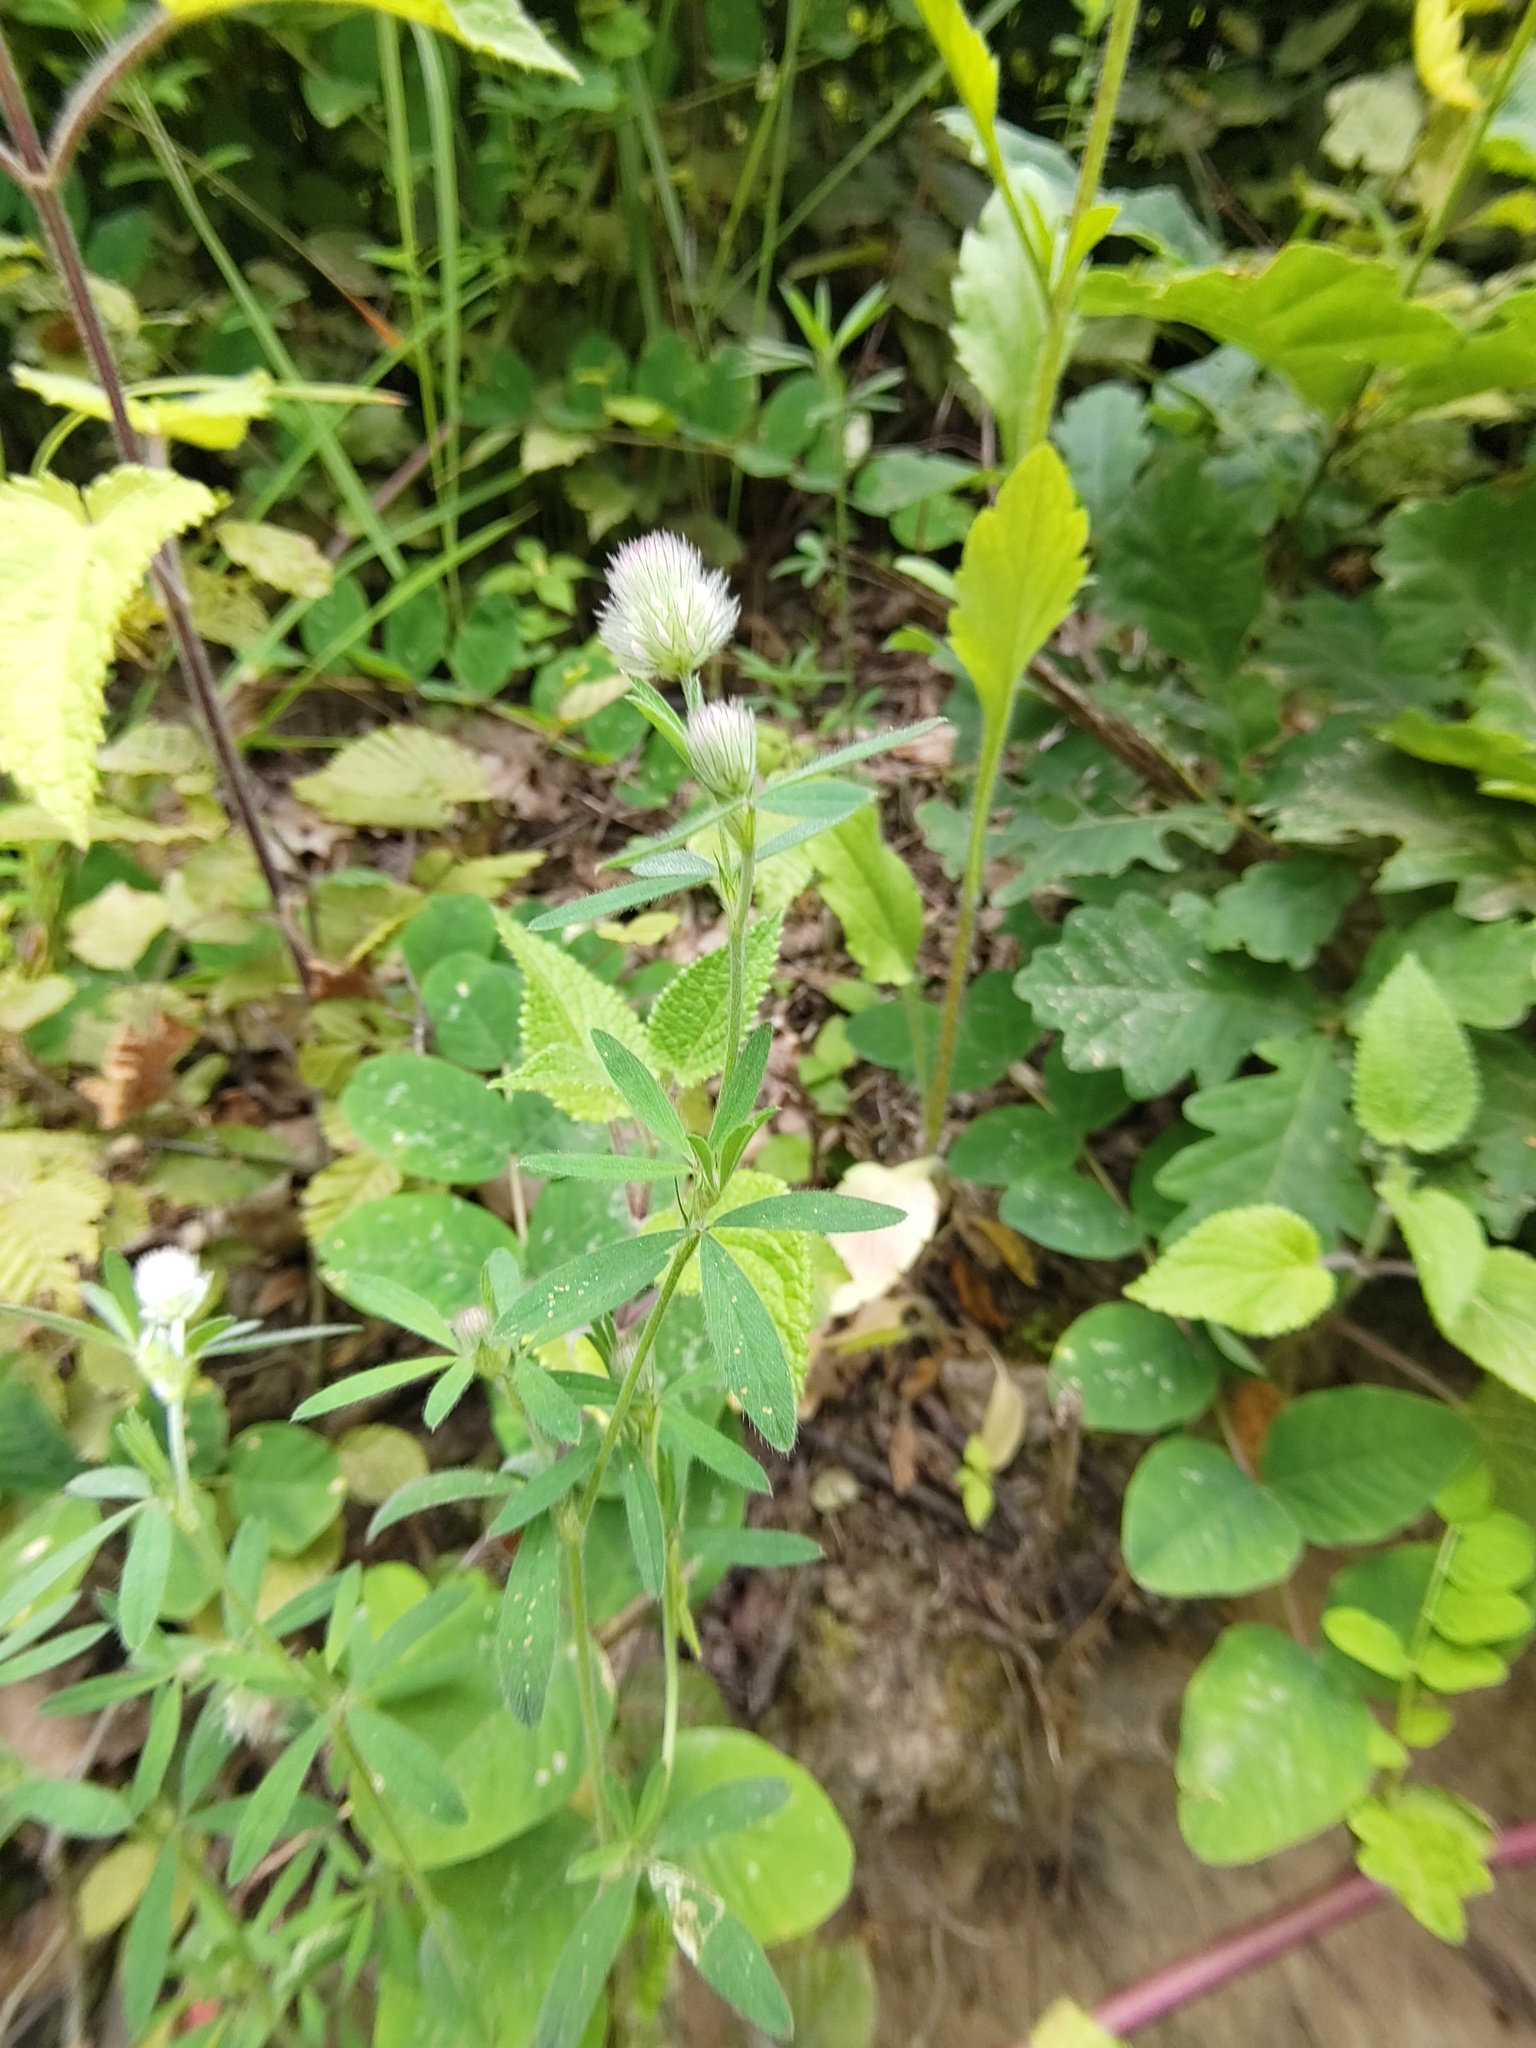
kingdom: Plantae
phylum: Tracheophyta
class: Magnoliopsida
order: Fabales
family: Fabaceae
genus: Trifolium
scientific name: Trifolium arvense
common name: Hare's-foot clover
